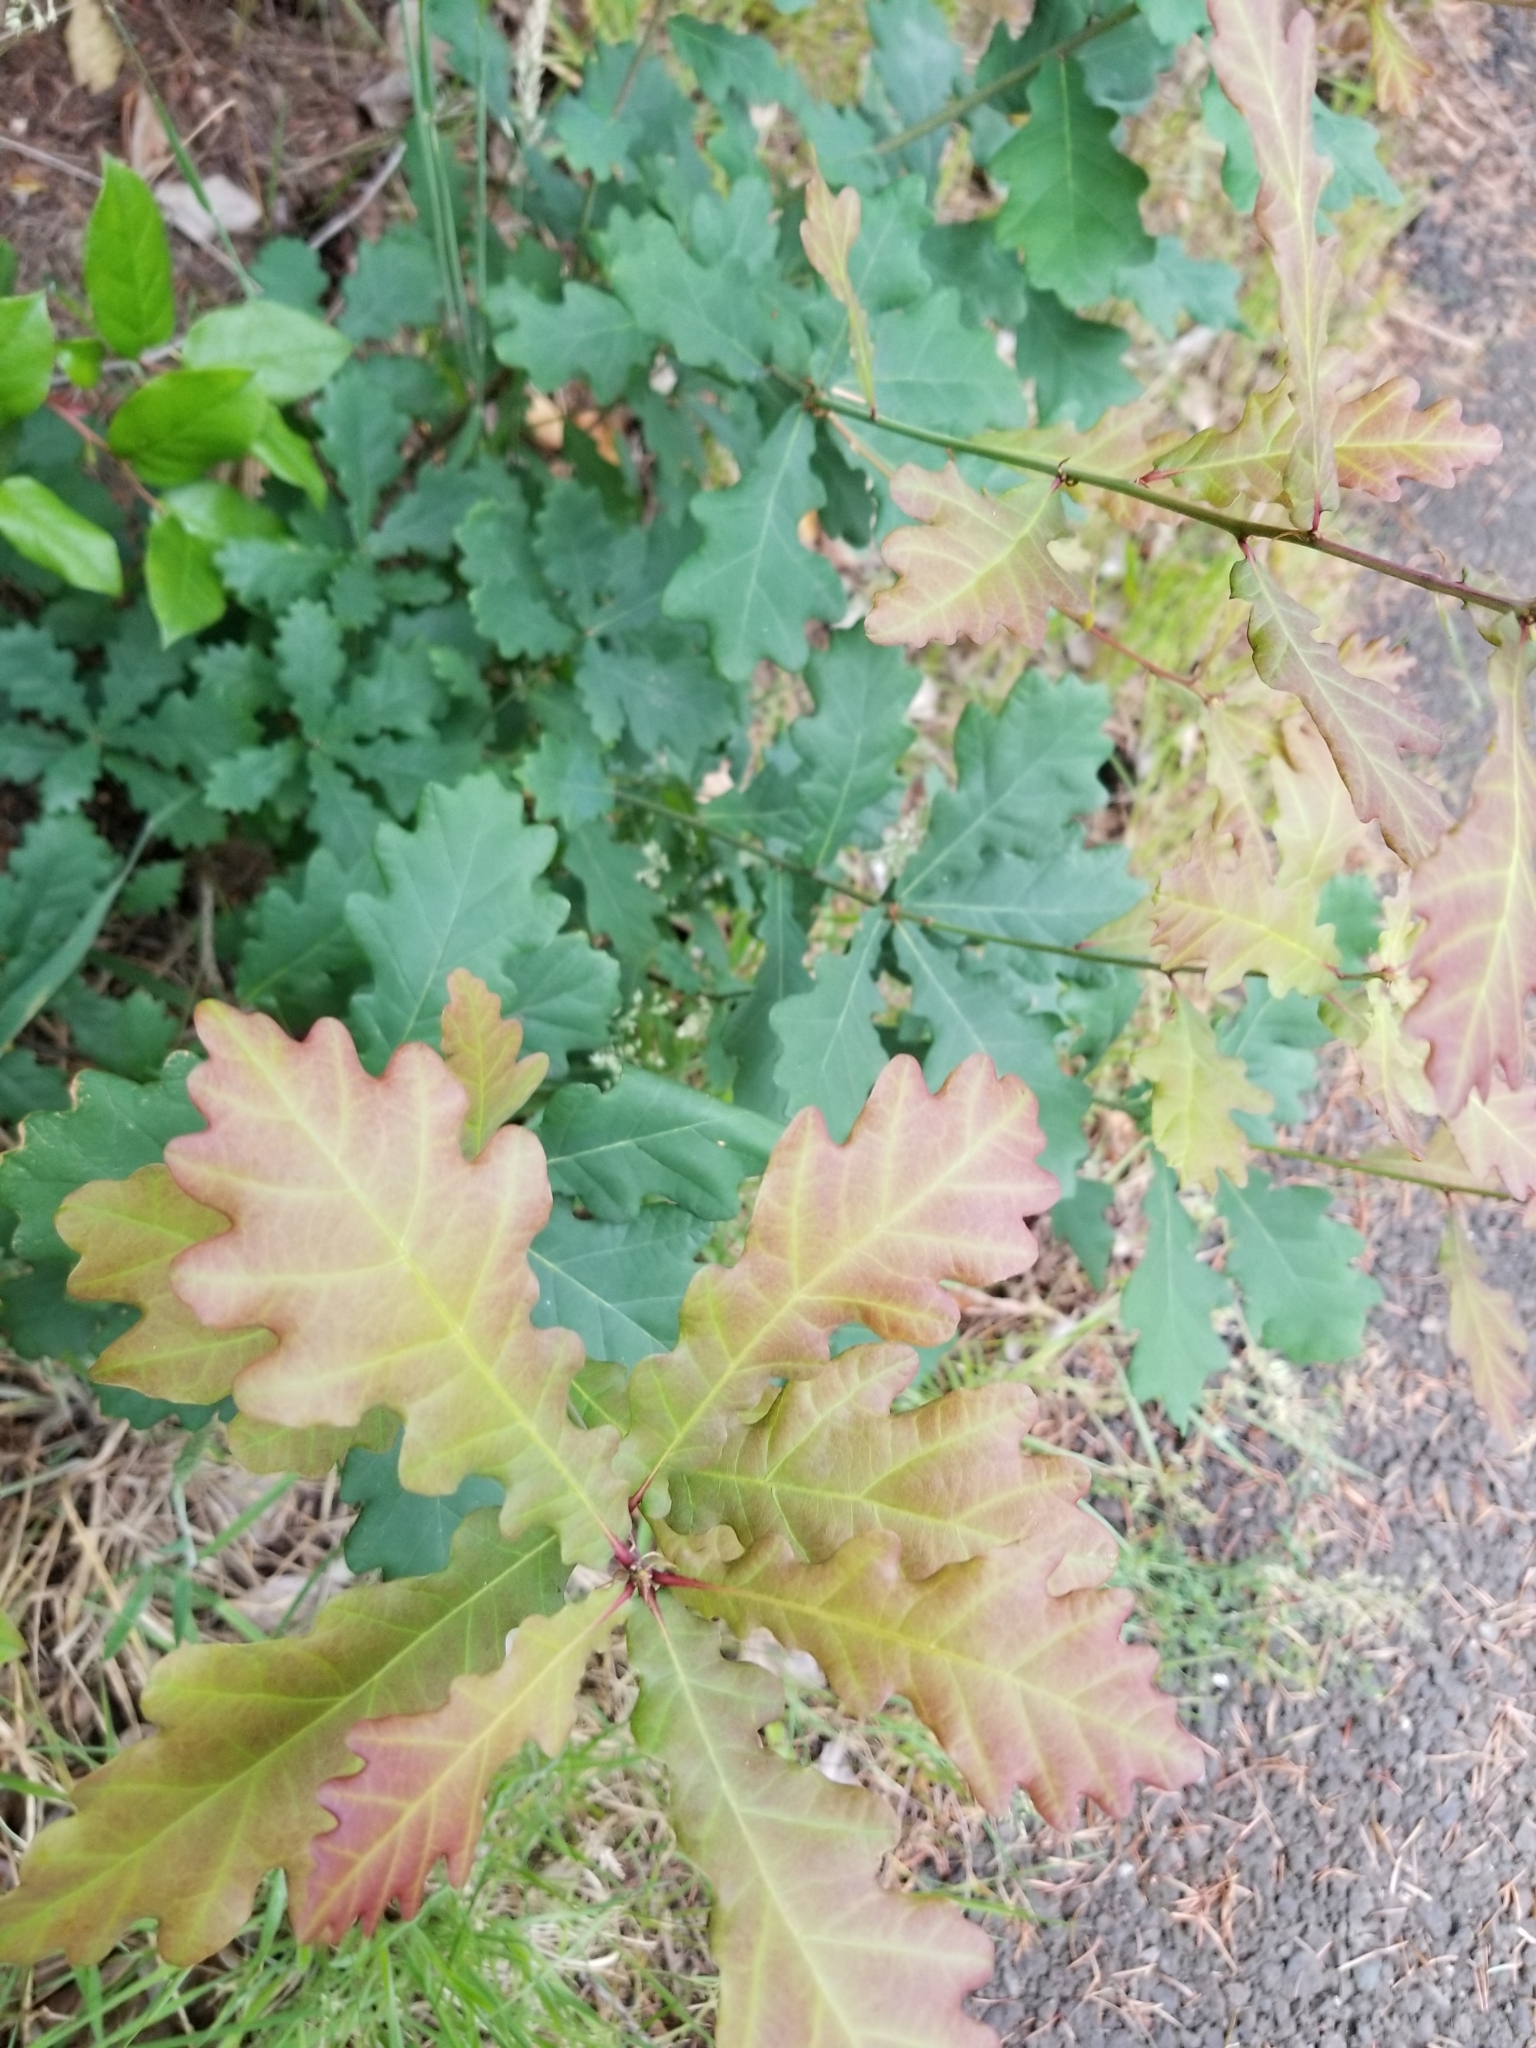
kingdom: Plantae
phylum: Tracheophyta
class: Magnoliopsida
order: Fagales
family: Fagaceae
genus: Quercus
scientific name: Quercus robur
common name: Pedunculate oak
